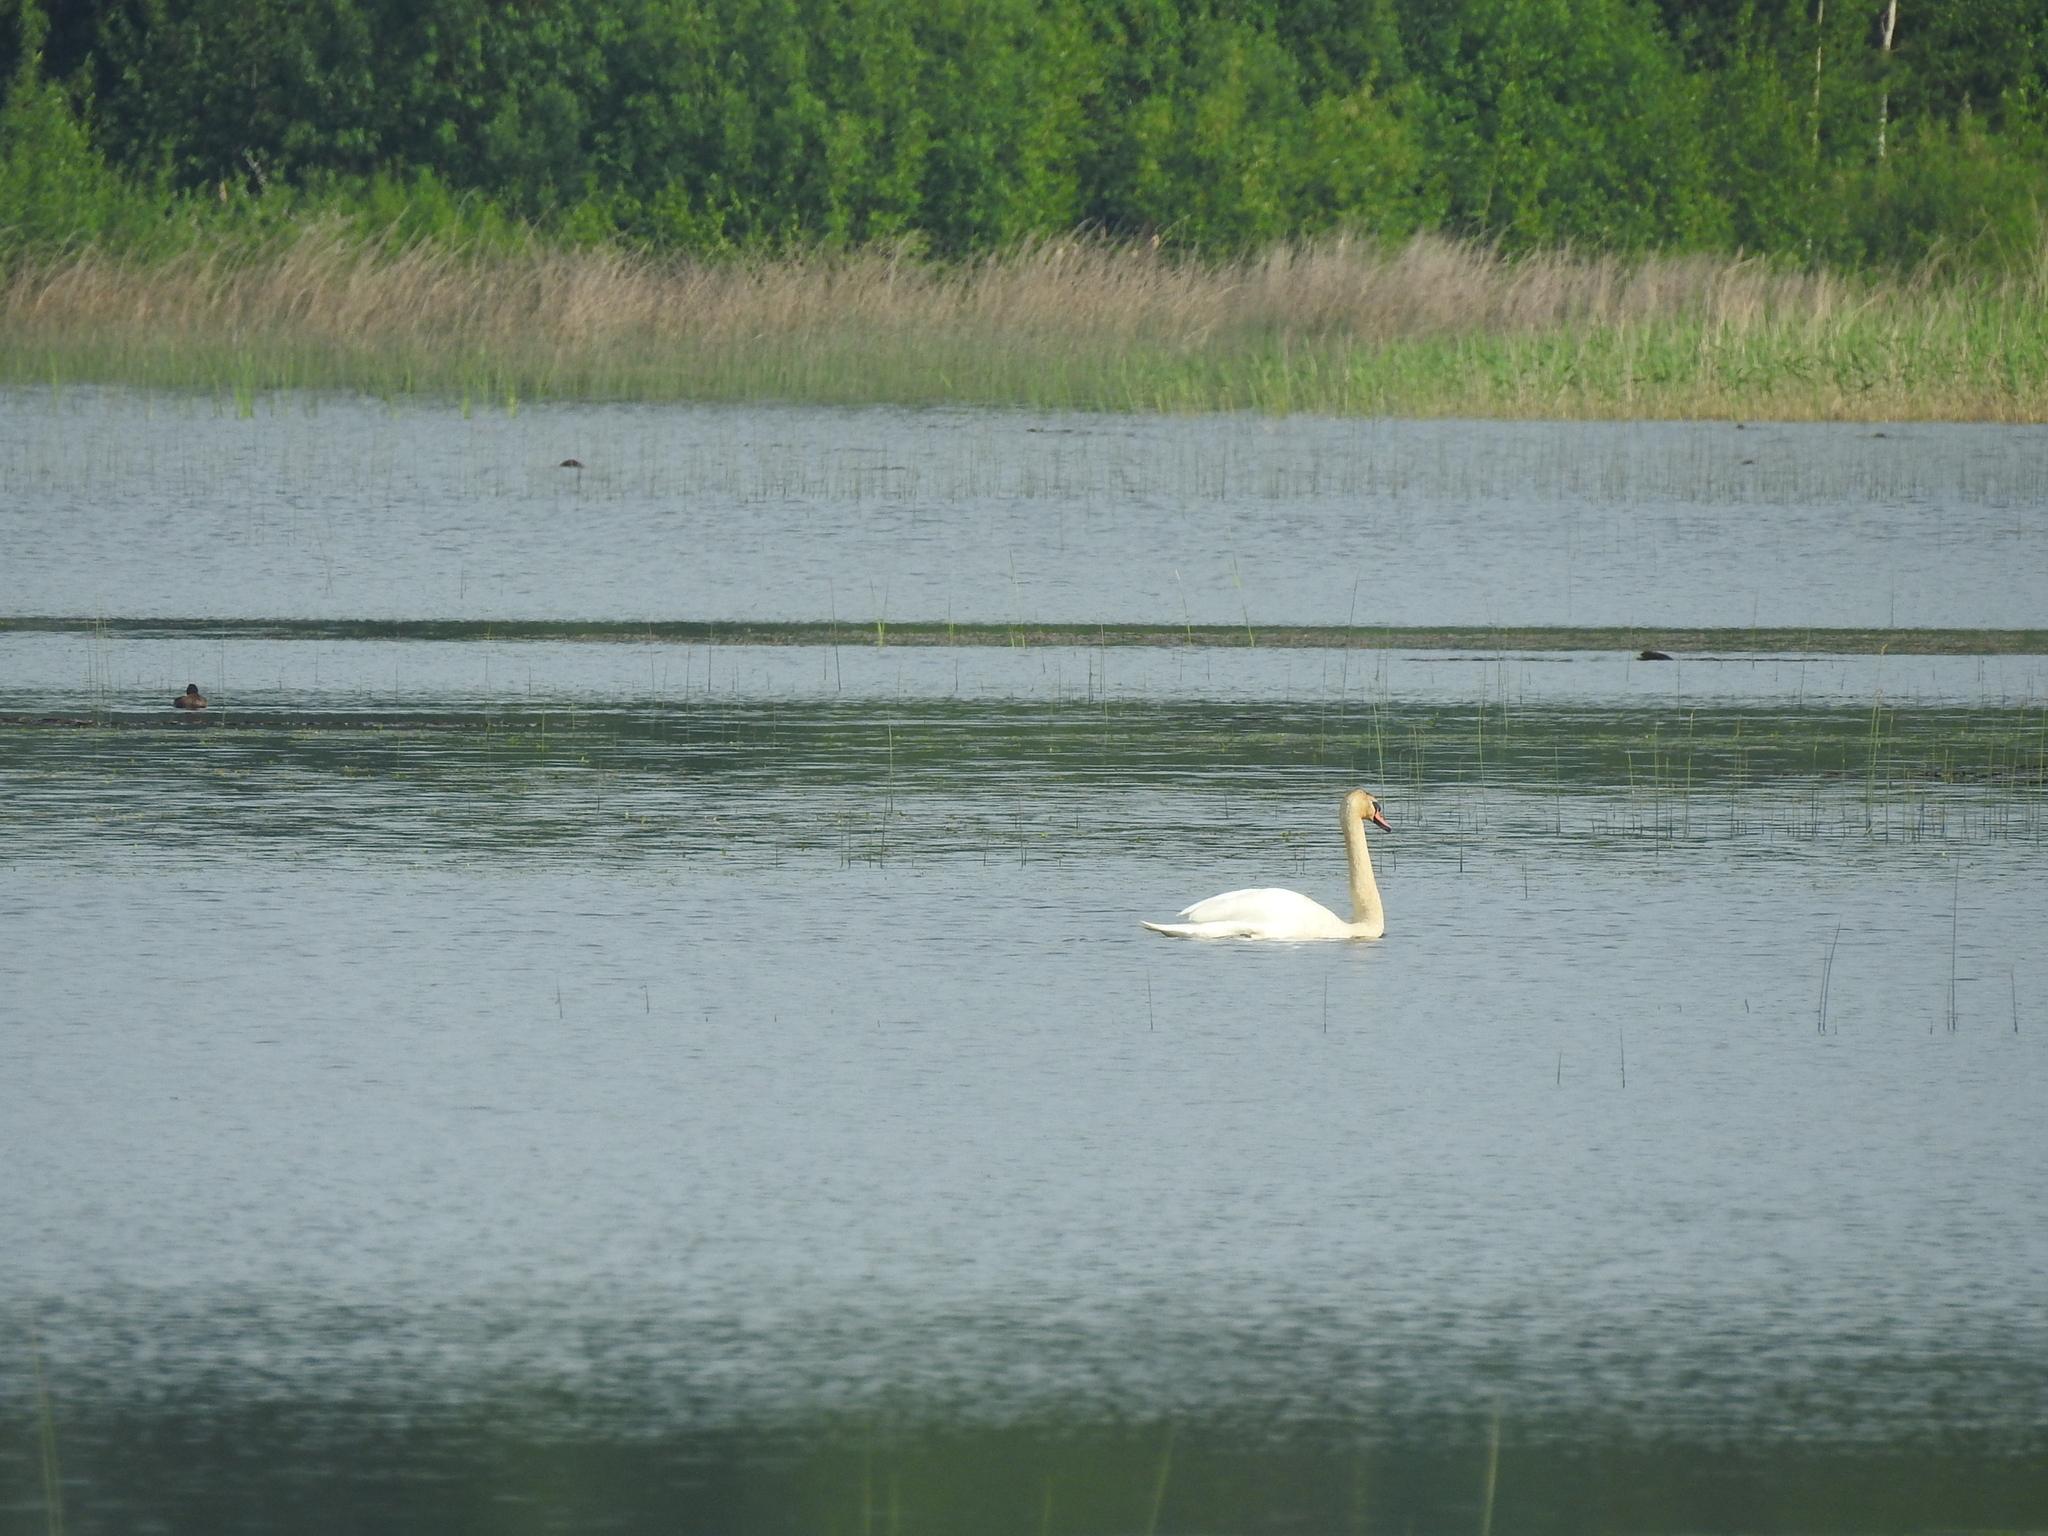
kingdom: Animalia
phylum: Chordata
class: Aves
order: Anseriformes
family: Anatidae
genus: Cygnus
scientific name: Cygnus olor
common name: Mute swan
